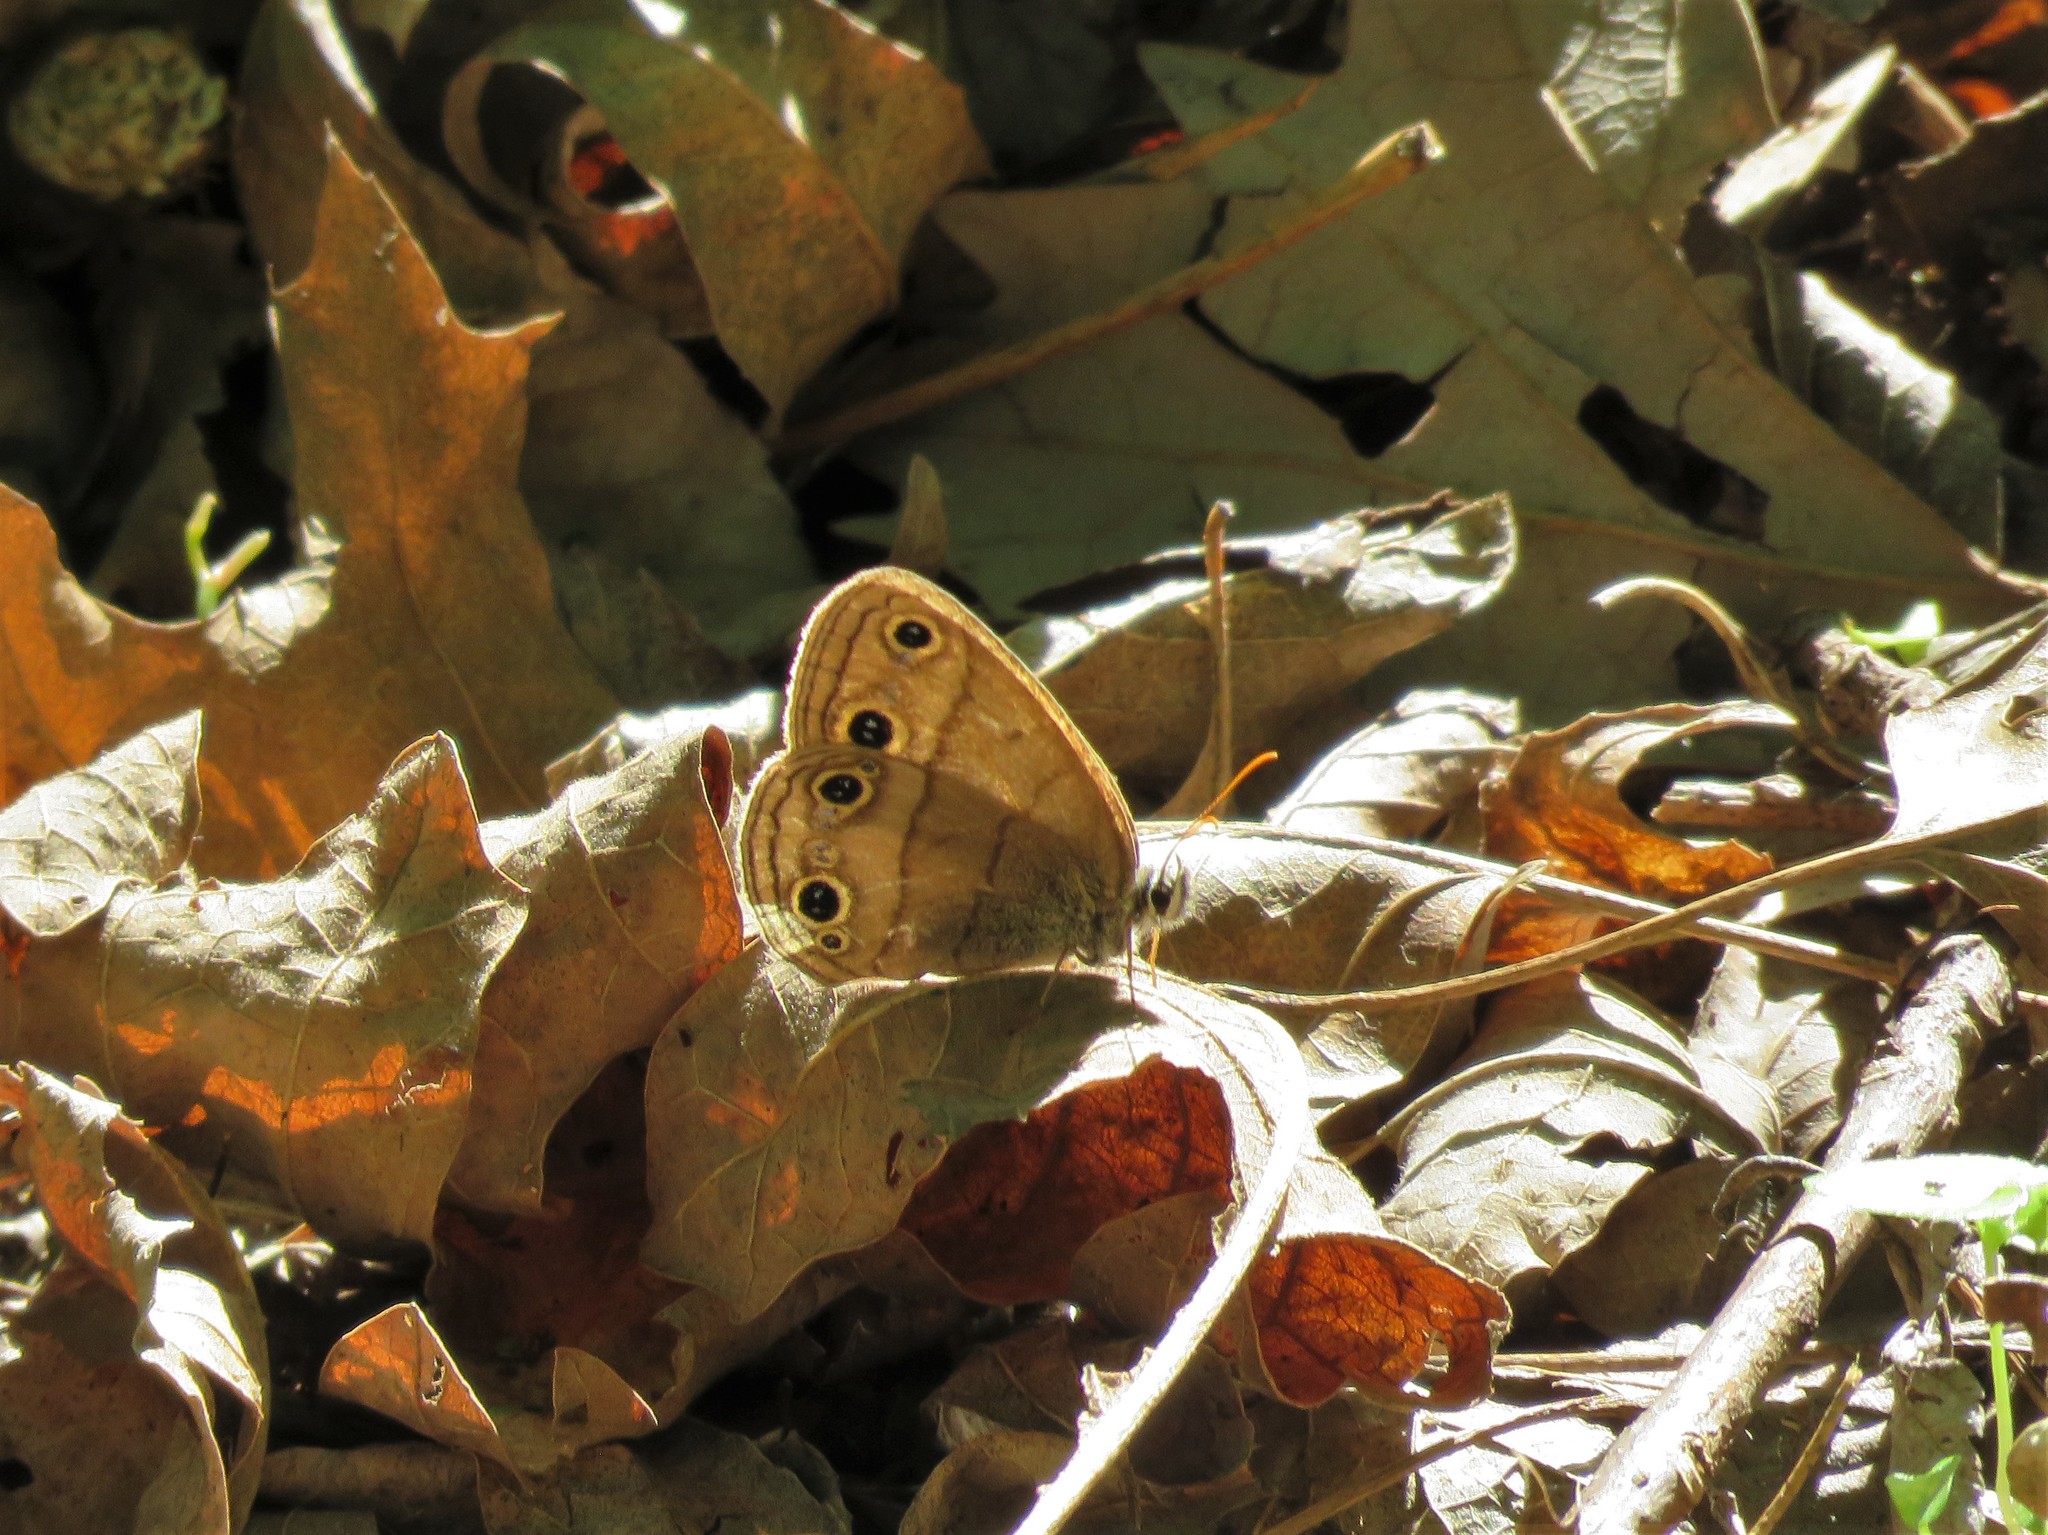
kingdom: Animalia
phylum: Arthropoda
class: Insecta
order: Lepidoptera
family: Nymphalidae
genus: Euptychia
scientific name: Euptychia cymela
